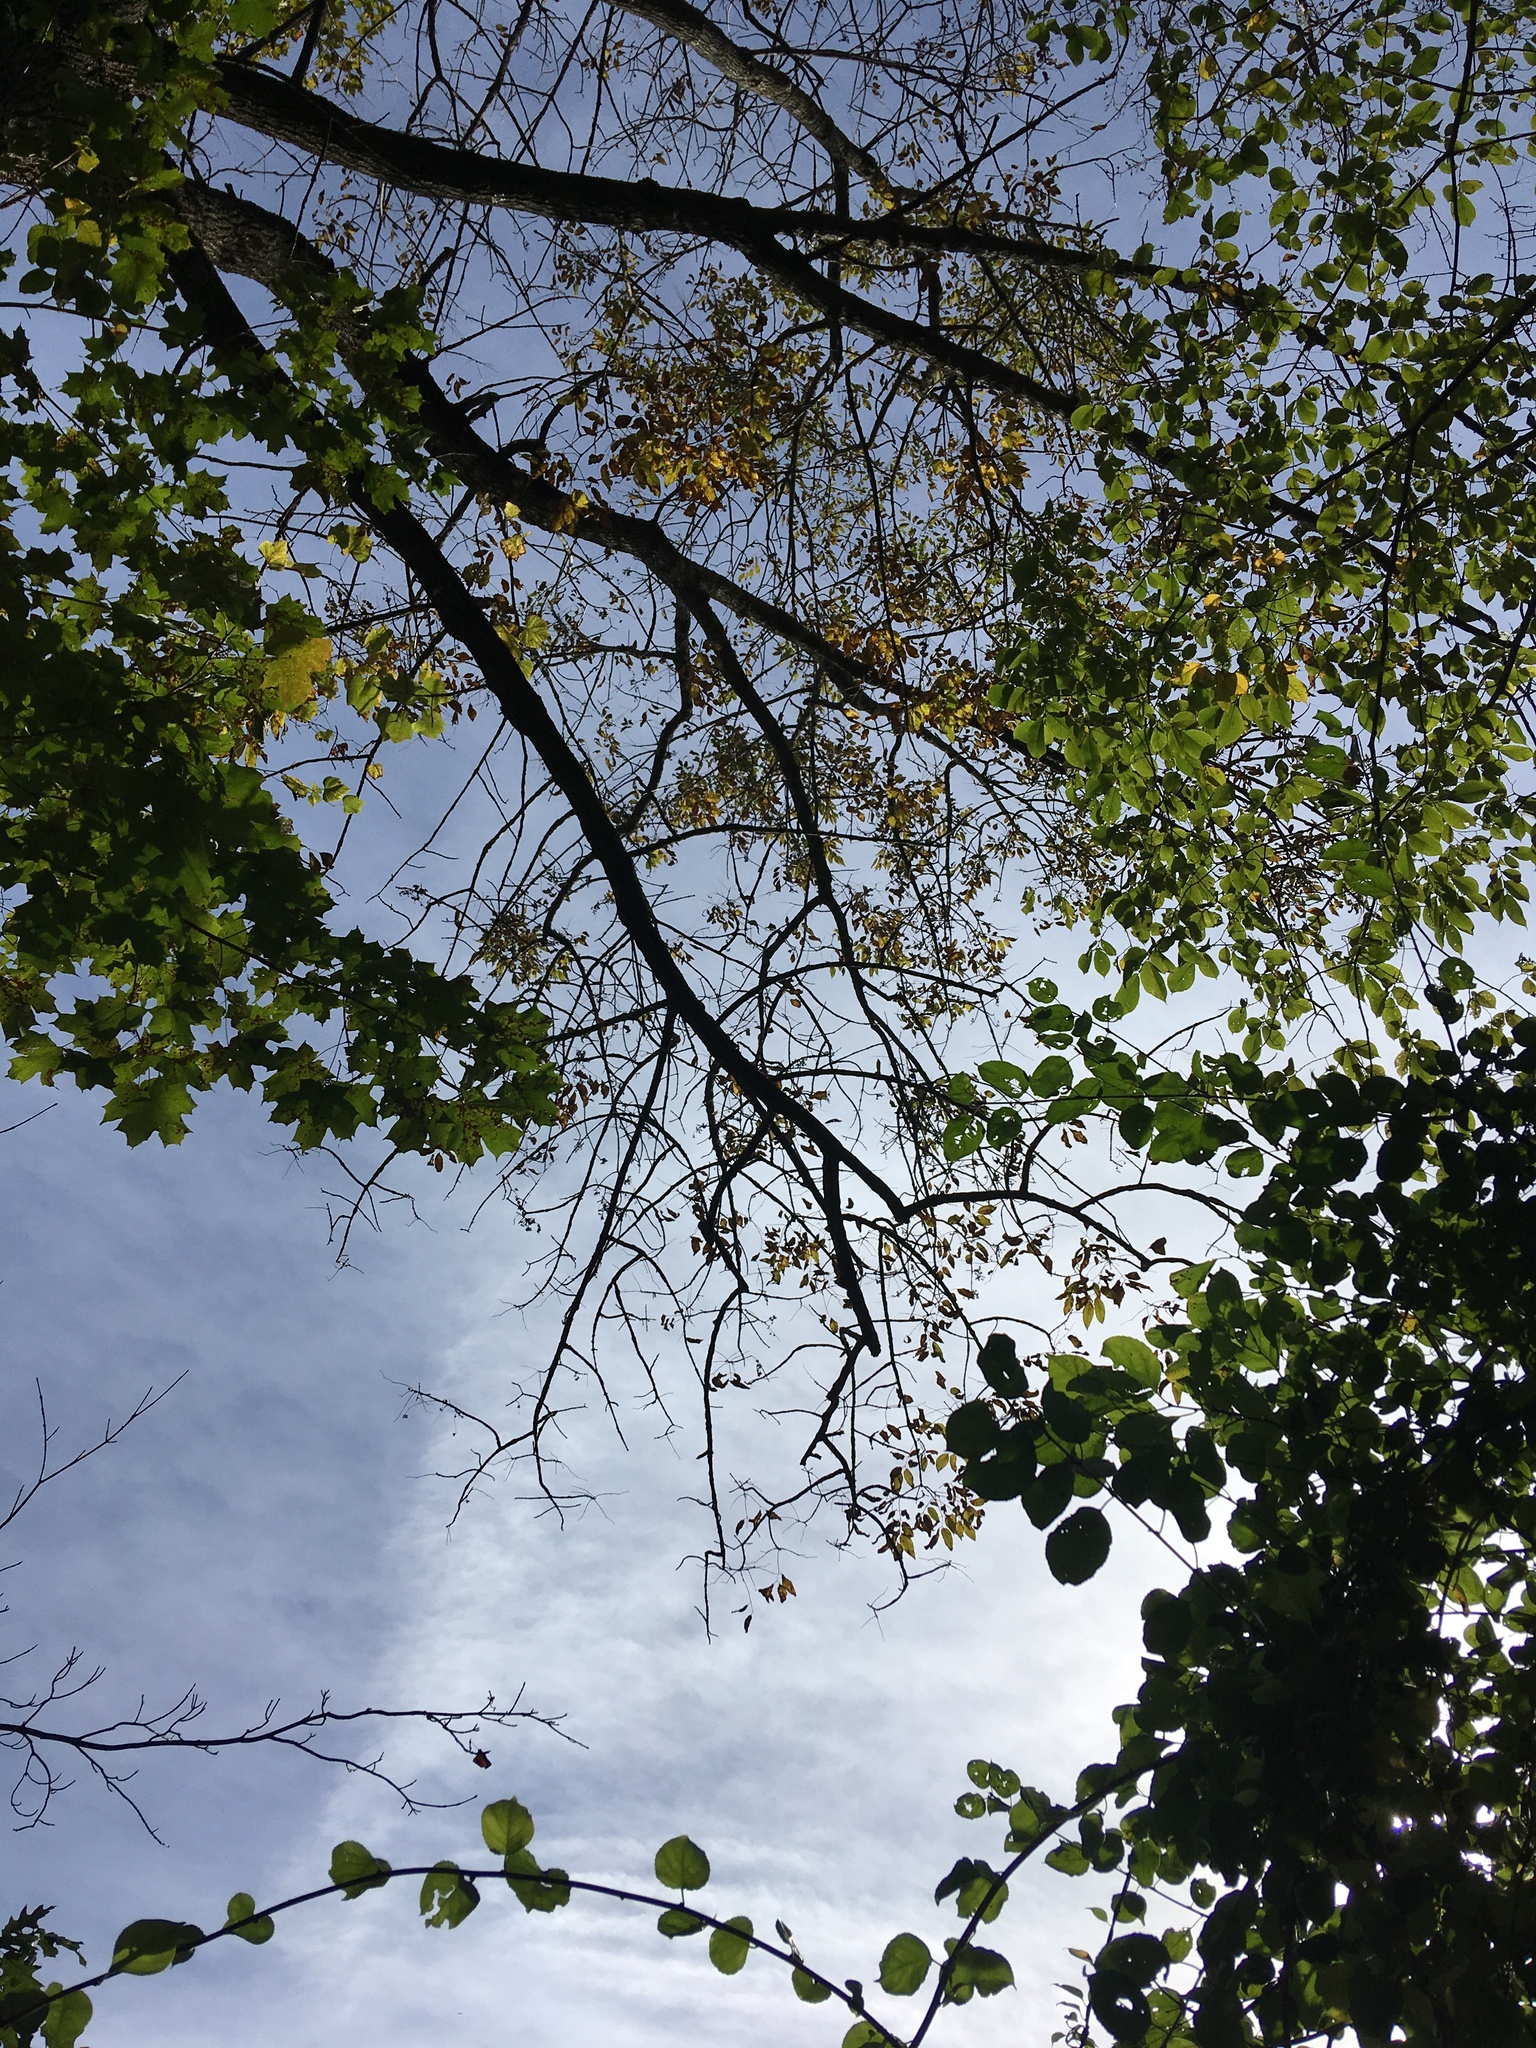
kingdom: Plantae
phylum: Tracheophyta
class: Magnoliopsida
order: Lamiales
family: Oleaceae
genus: Fraxinus
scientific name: Fraxinus americana
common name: White ash
